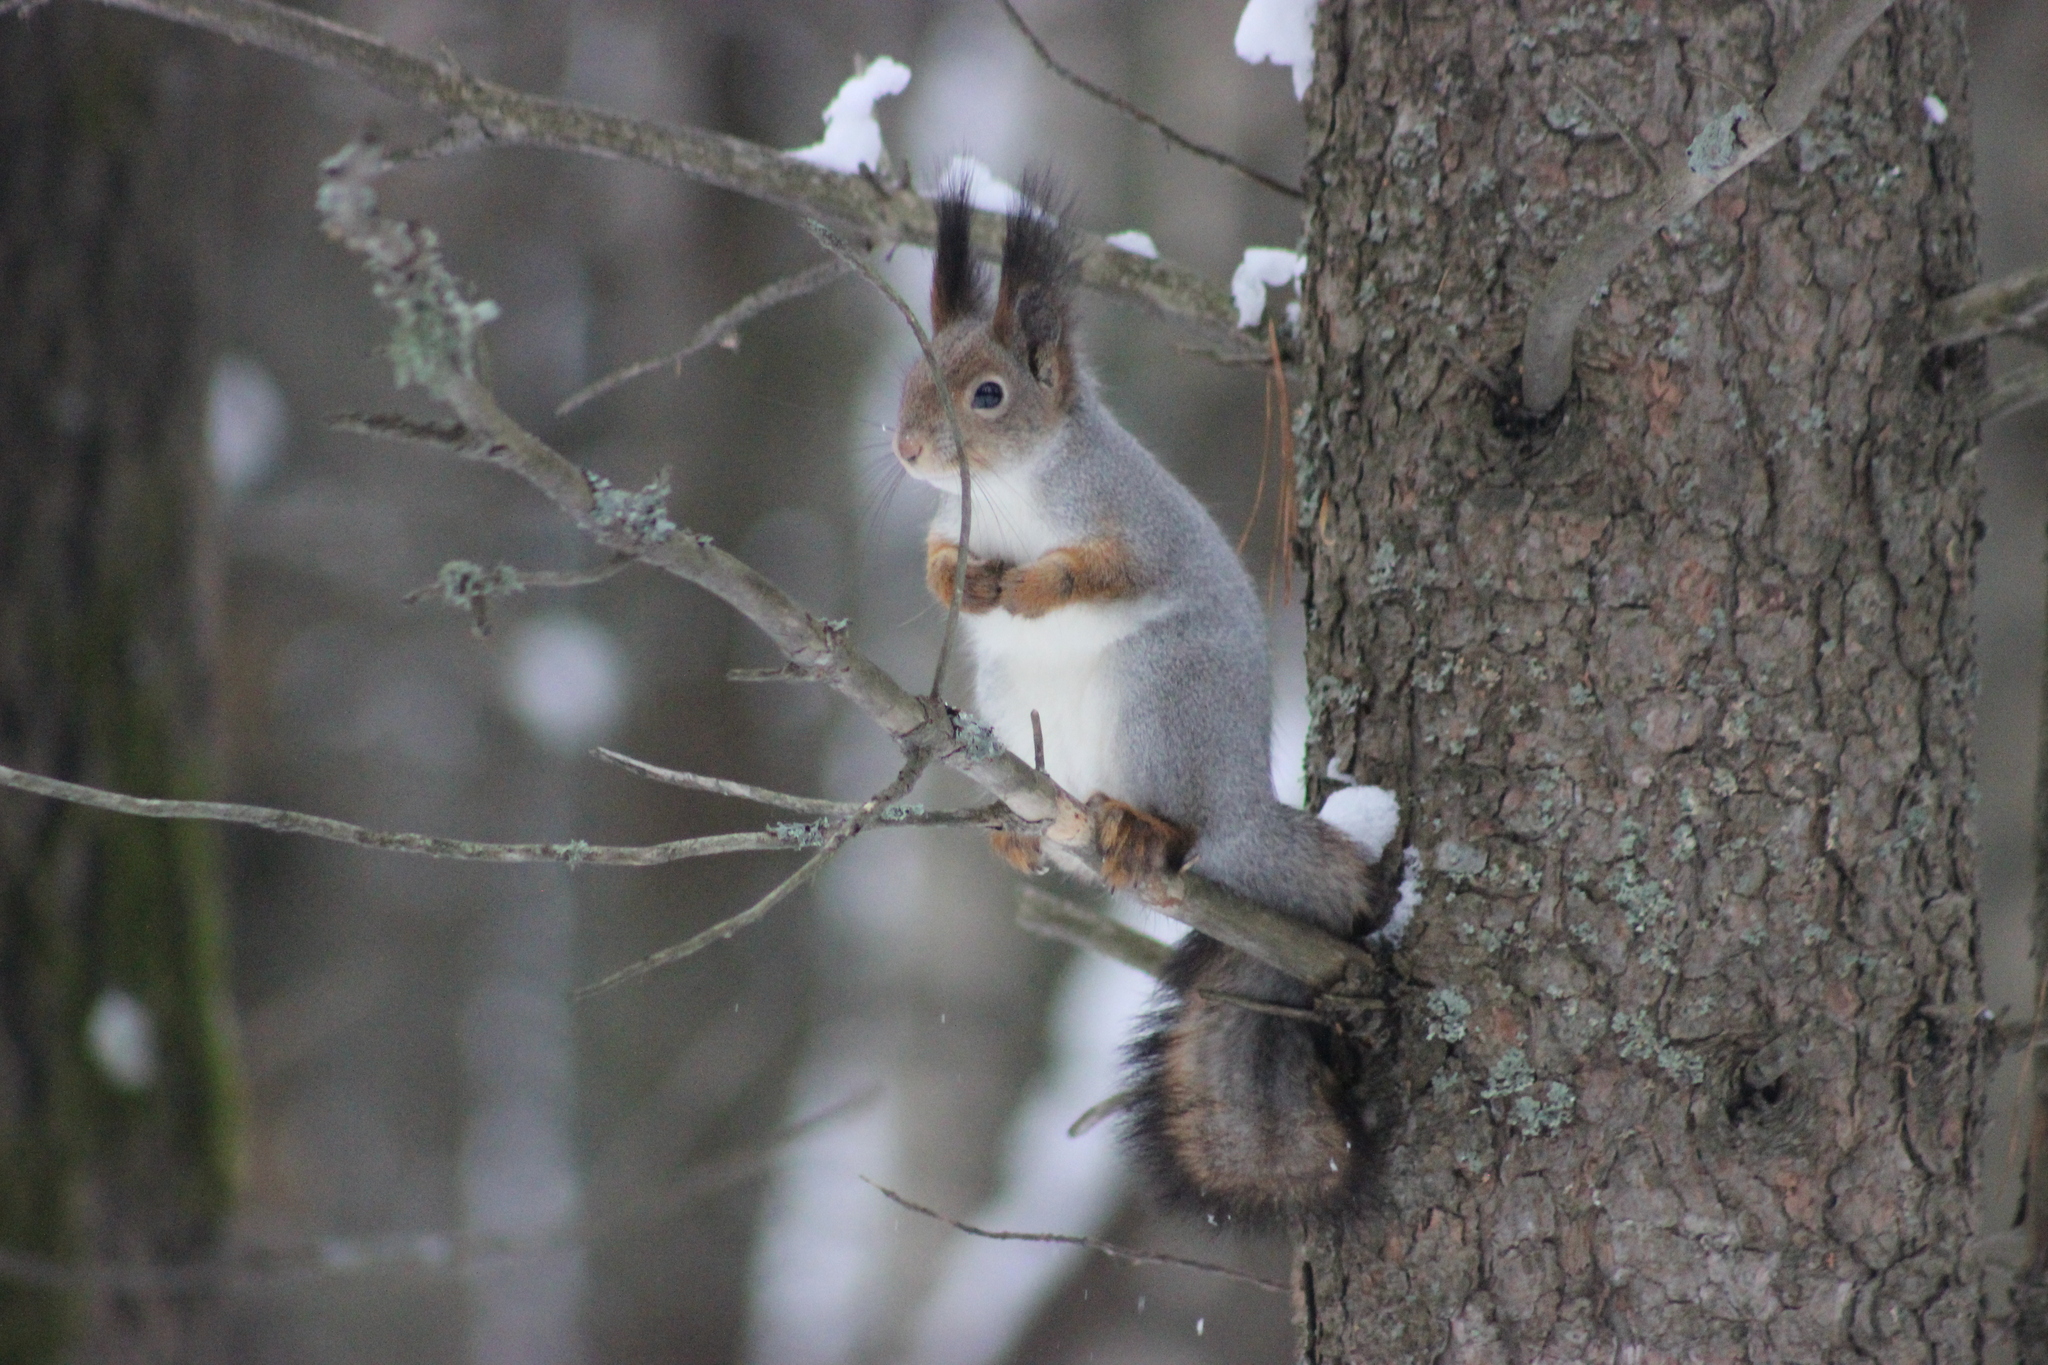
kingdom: Animalia
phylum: Chordata
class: Mammalia
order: Rodentia
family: Sciuridae
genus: Sciurus
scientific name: Sciurus vulgaris
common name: Eurasian red squirrel
